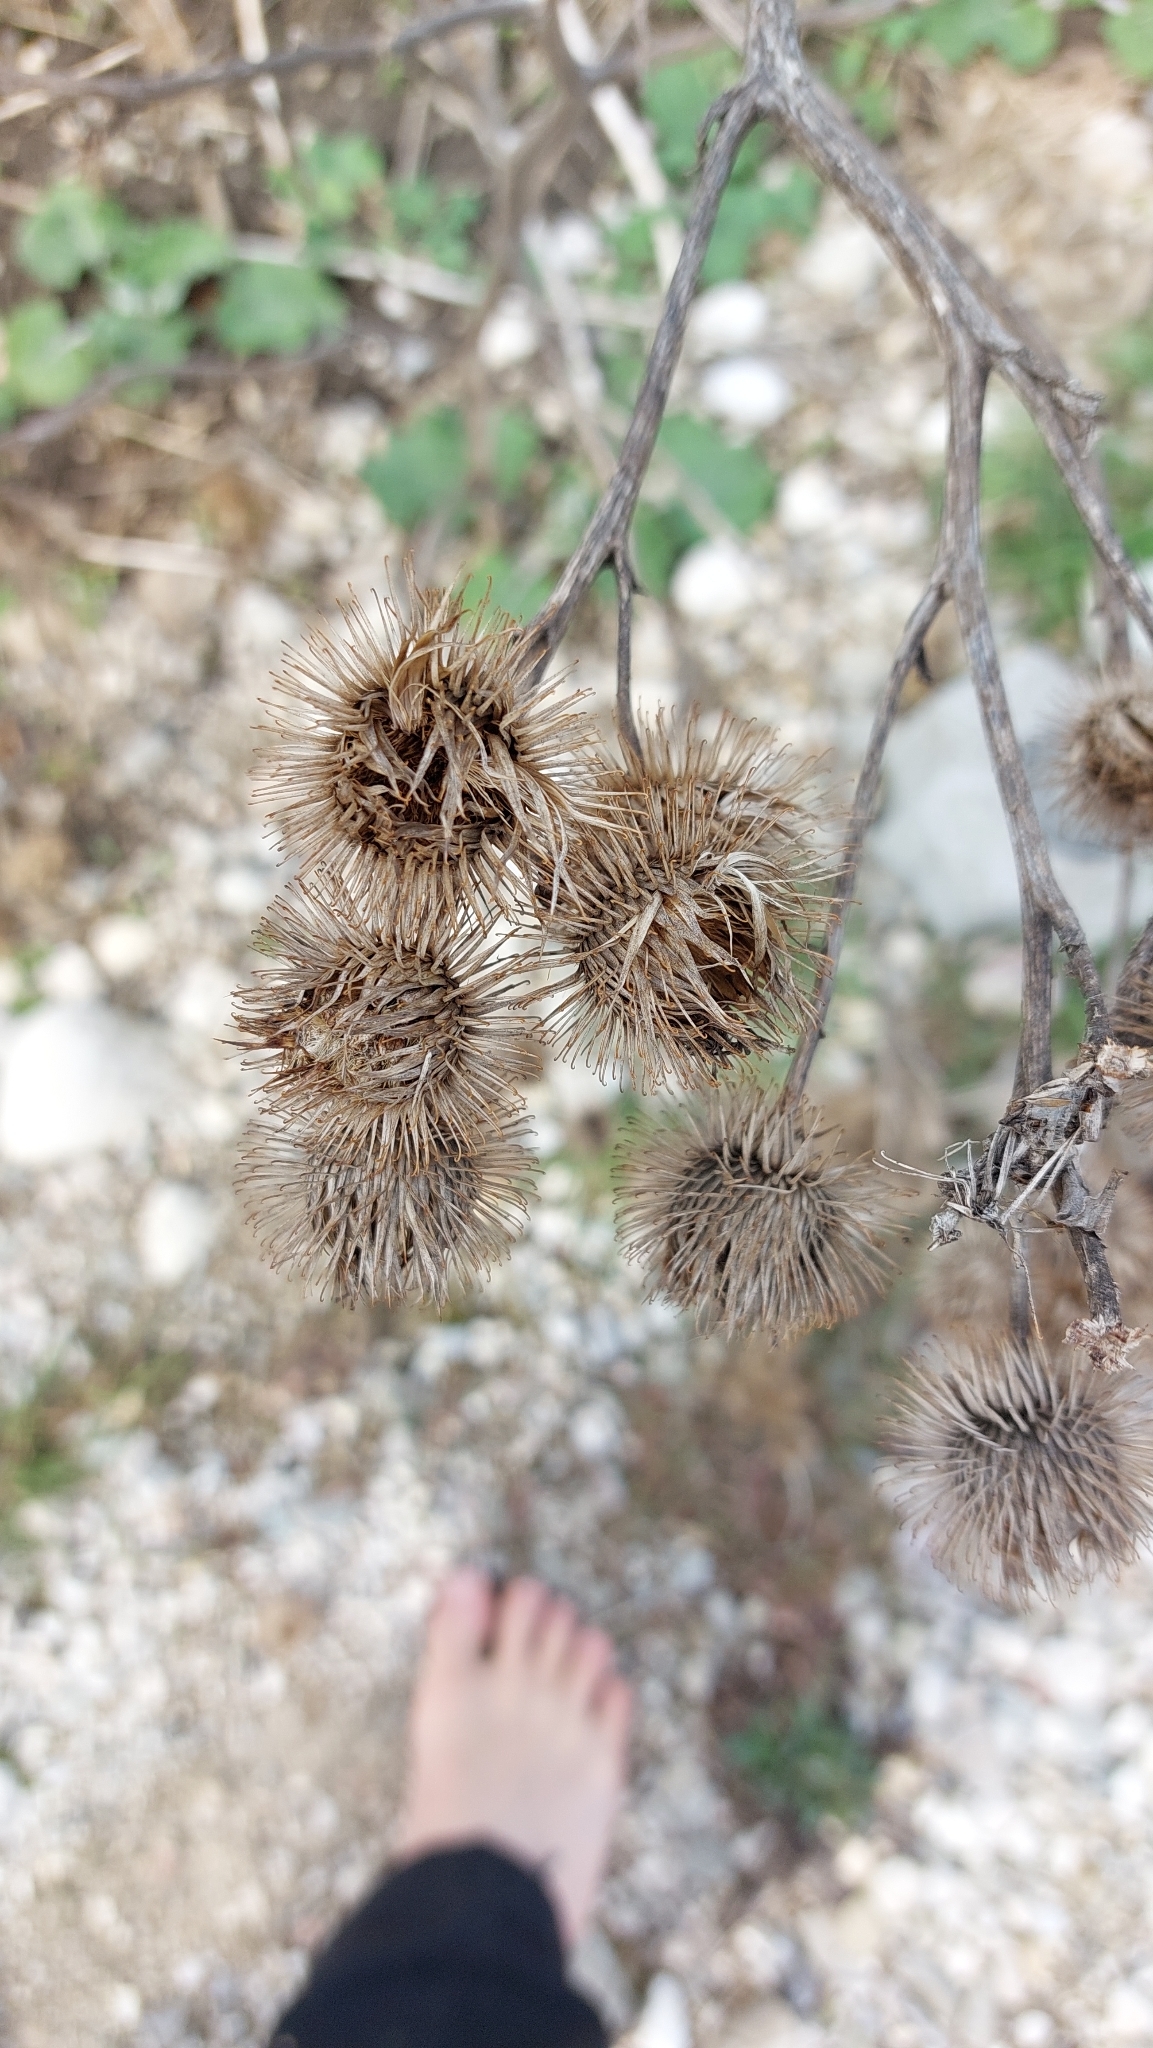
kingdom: Plantae
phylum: Tracheophyta
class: Magnoliopsida
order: Asterales
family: Asteraceae
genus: Arctium
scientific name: Arctium lappa
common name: Greater burdock
